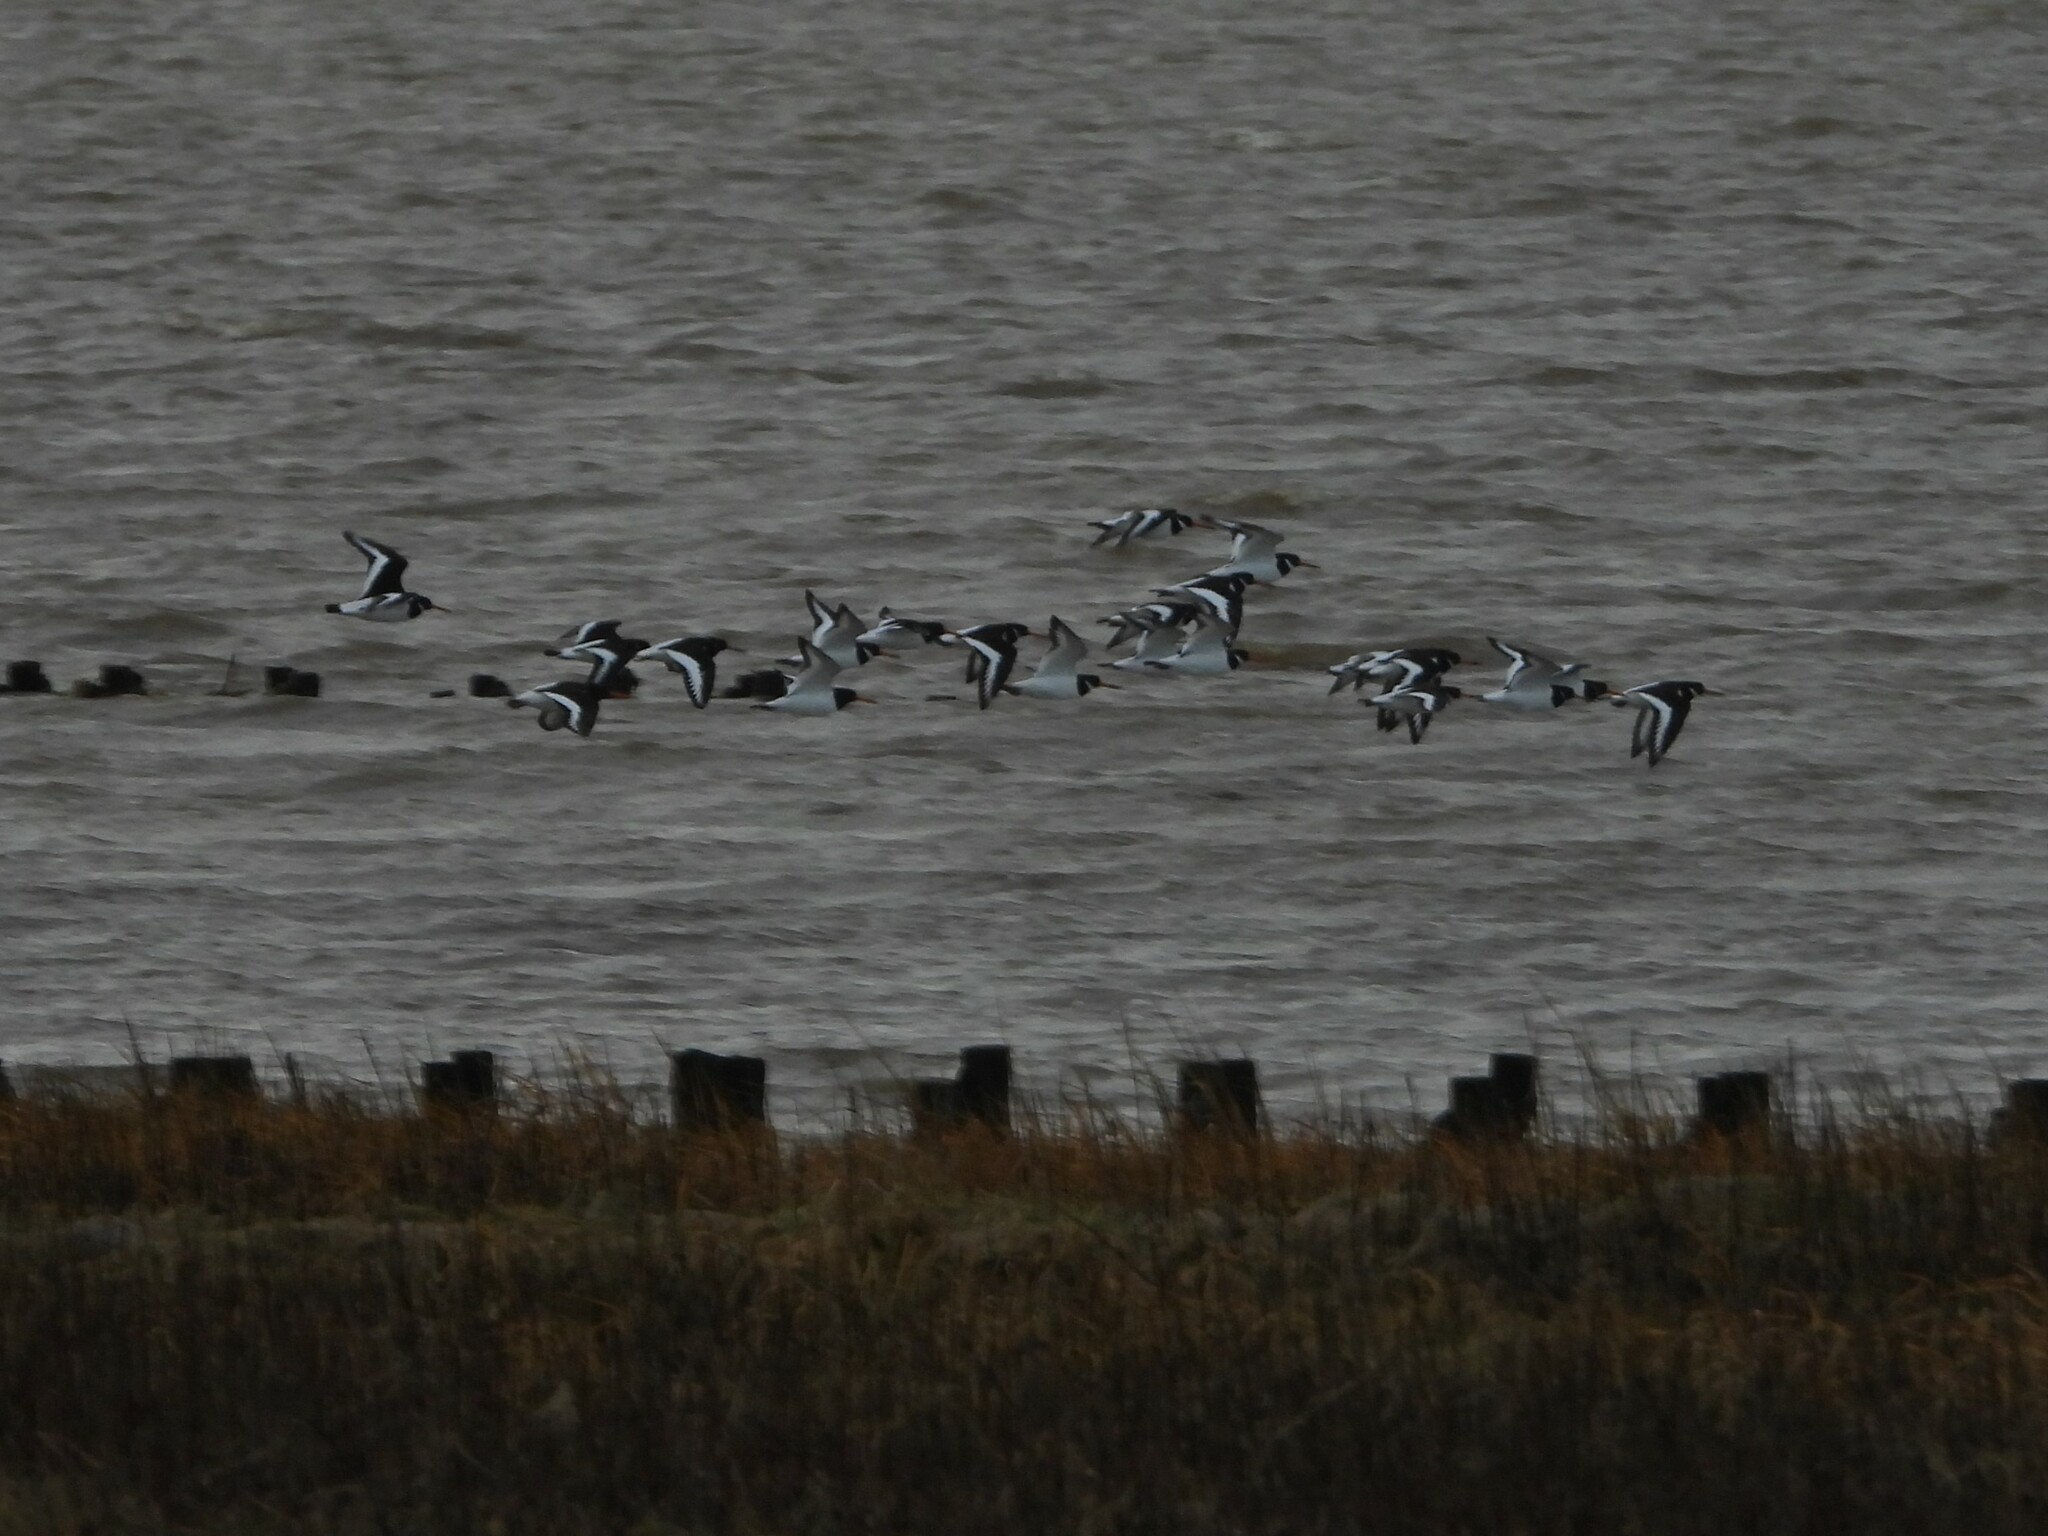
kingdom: Animalia
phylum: Chordata
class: Aves
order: Charadriiformes
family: Haematopodidae
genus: Haematopus
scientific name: Haematopus ostralegus
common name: Eurasian oystercatcher
